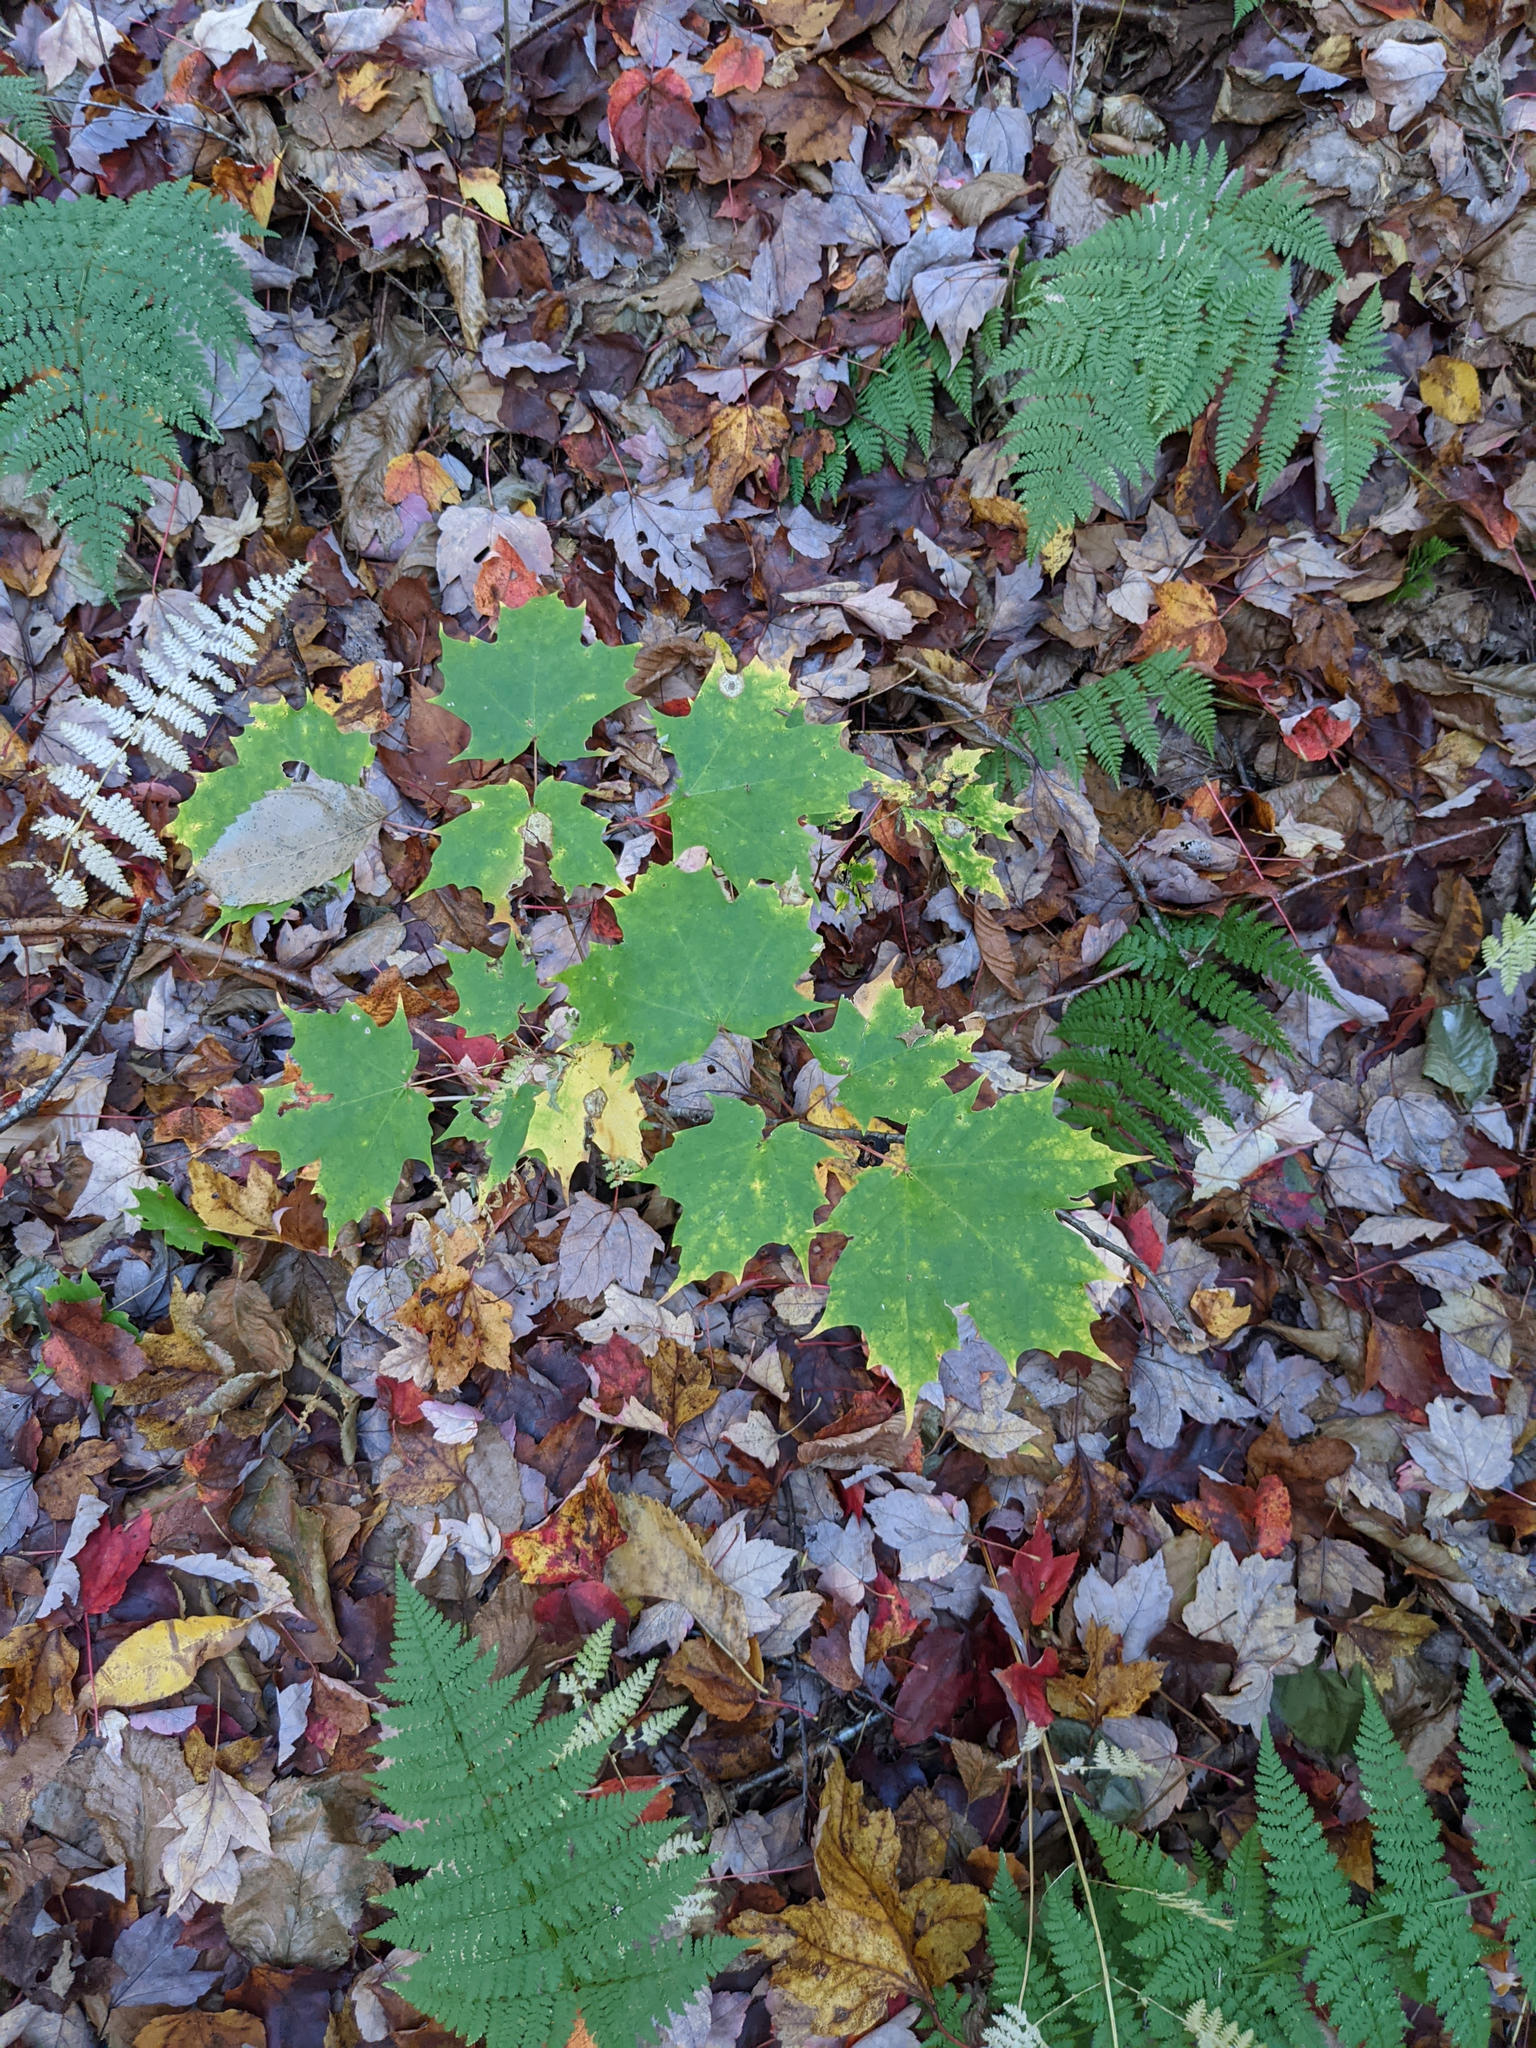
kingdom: Plantae
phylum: Tracheophyta
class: Magnoliopsida
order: Sapindales
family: Sapindaceae
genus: Acer
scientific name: Acer saccharum
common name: Sugar maple
